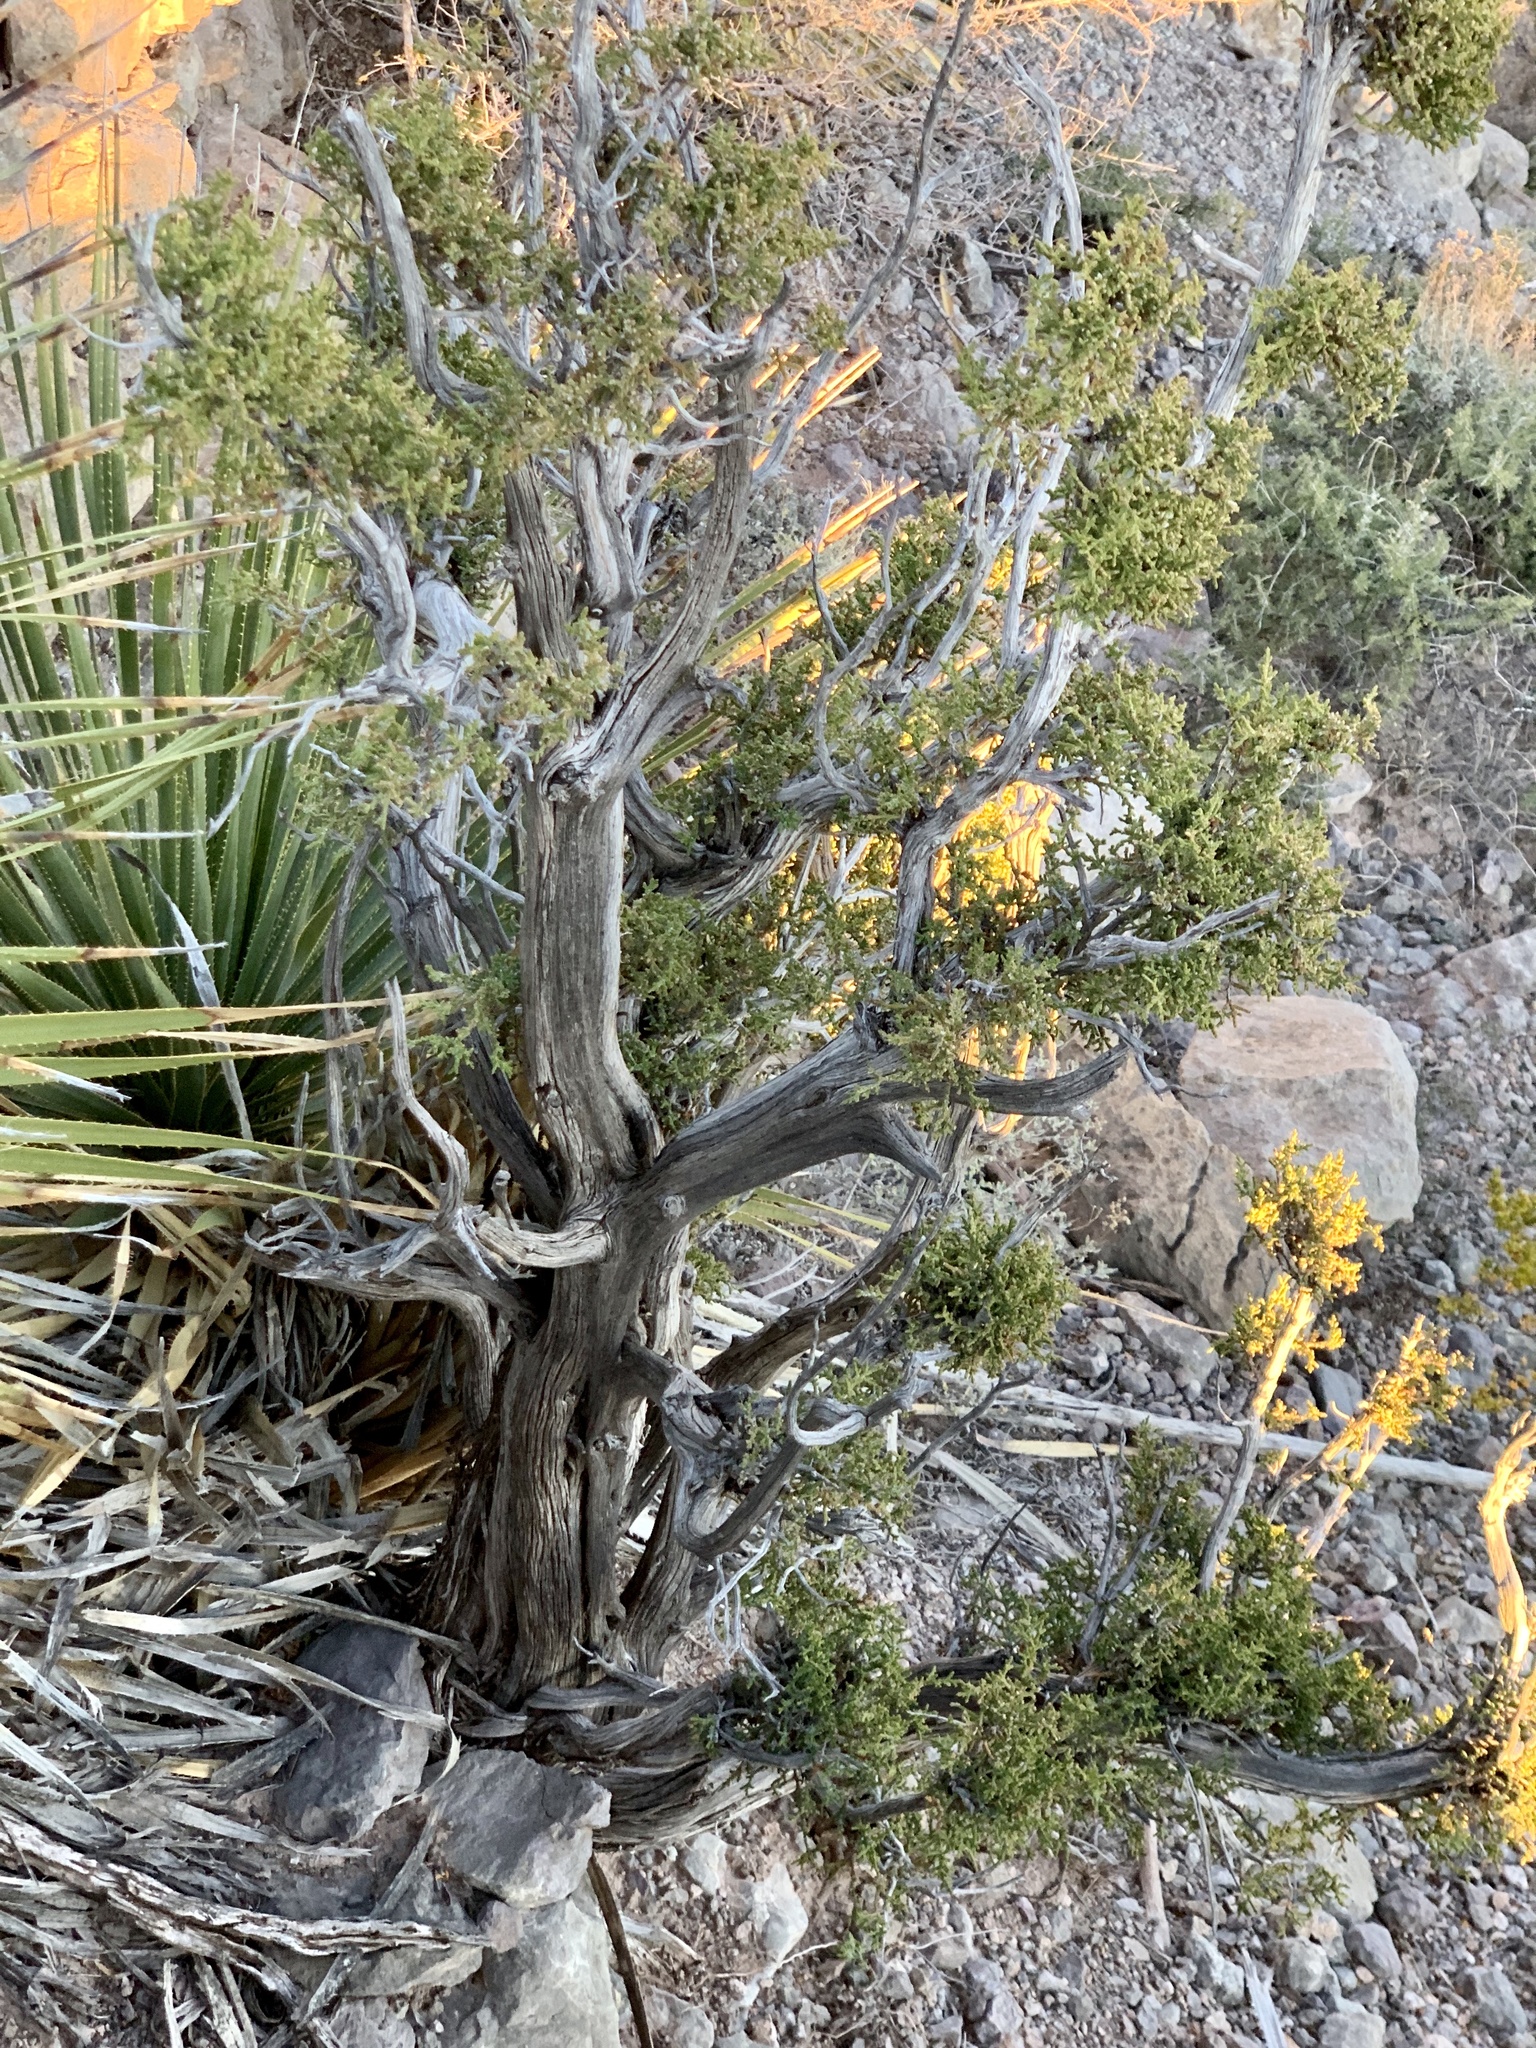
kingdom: Plantae
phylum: Tracheophyta
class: Pinopsida
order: Pinales
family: Cupressaceae
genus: Juniperus
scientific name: Juniperus monosperma
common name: One-seed juniper
